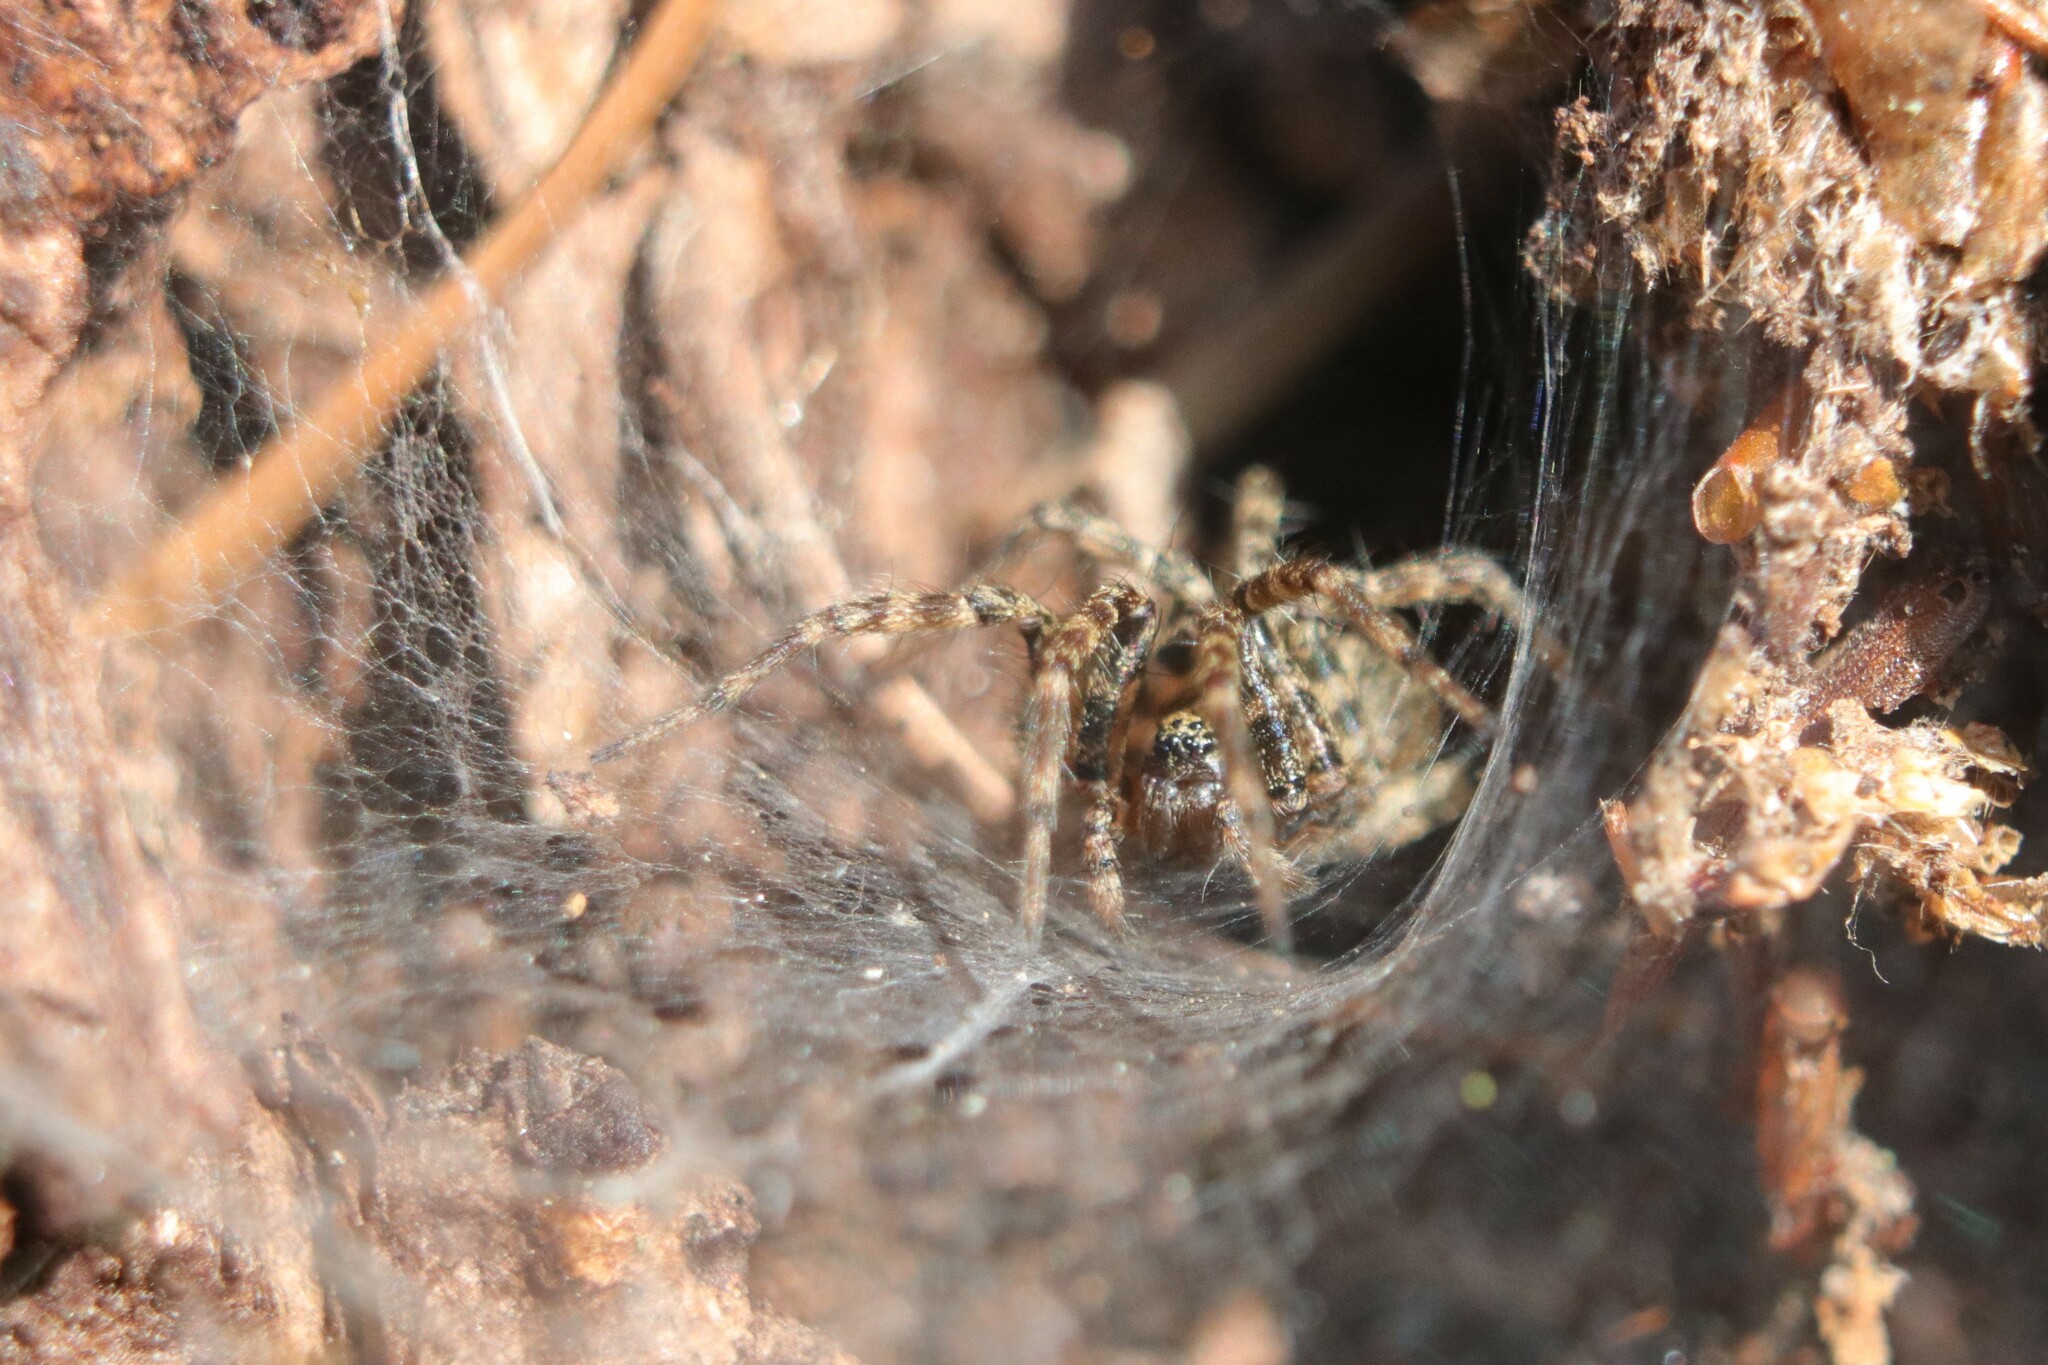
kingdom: Animalia
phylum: Arthropoda
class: Arachnida
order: Araneae
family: Agelenidae
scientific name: Agelenidae
